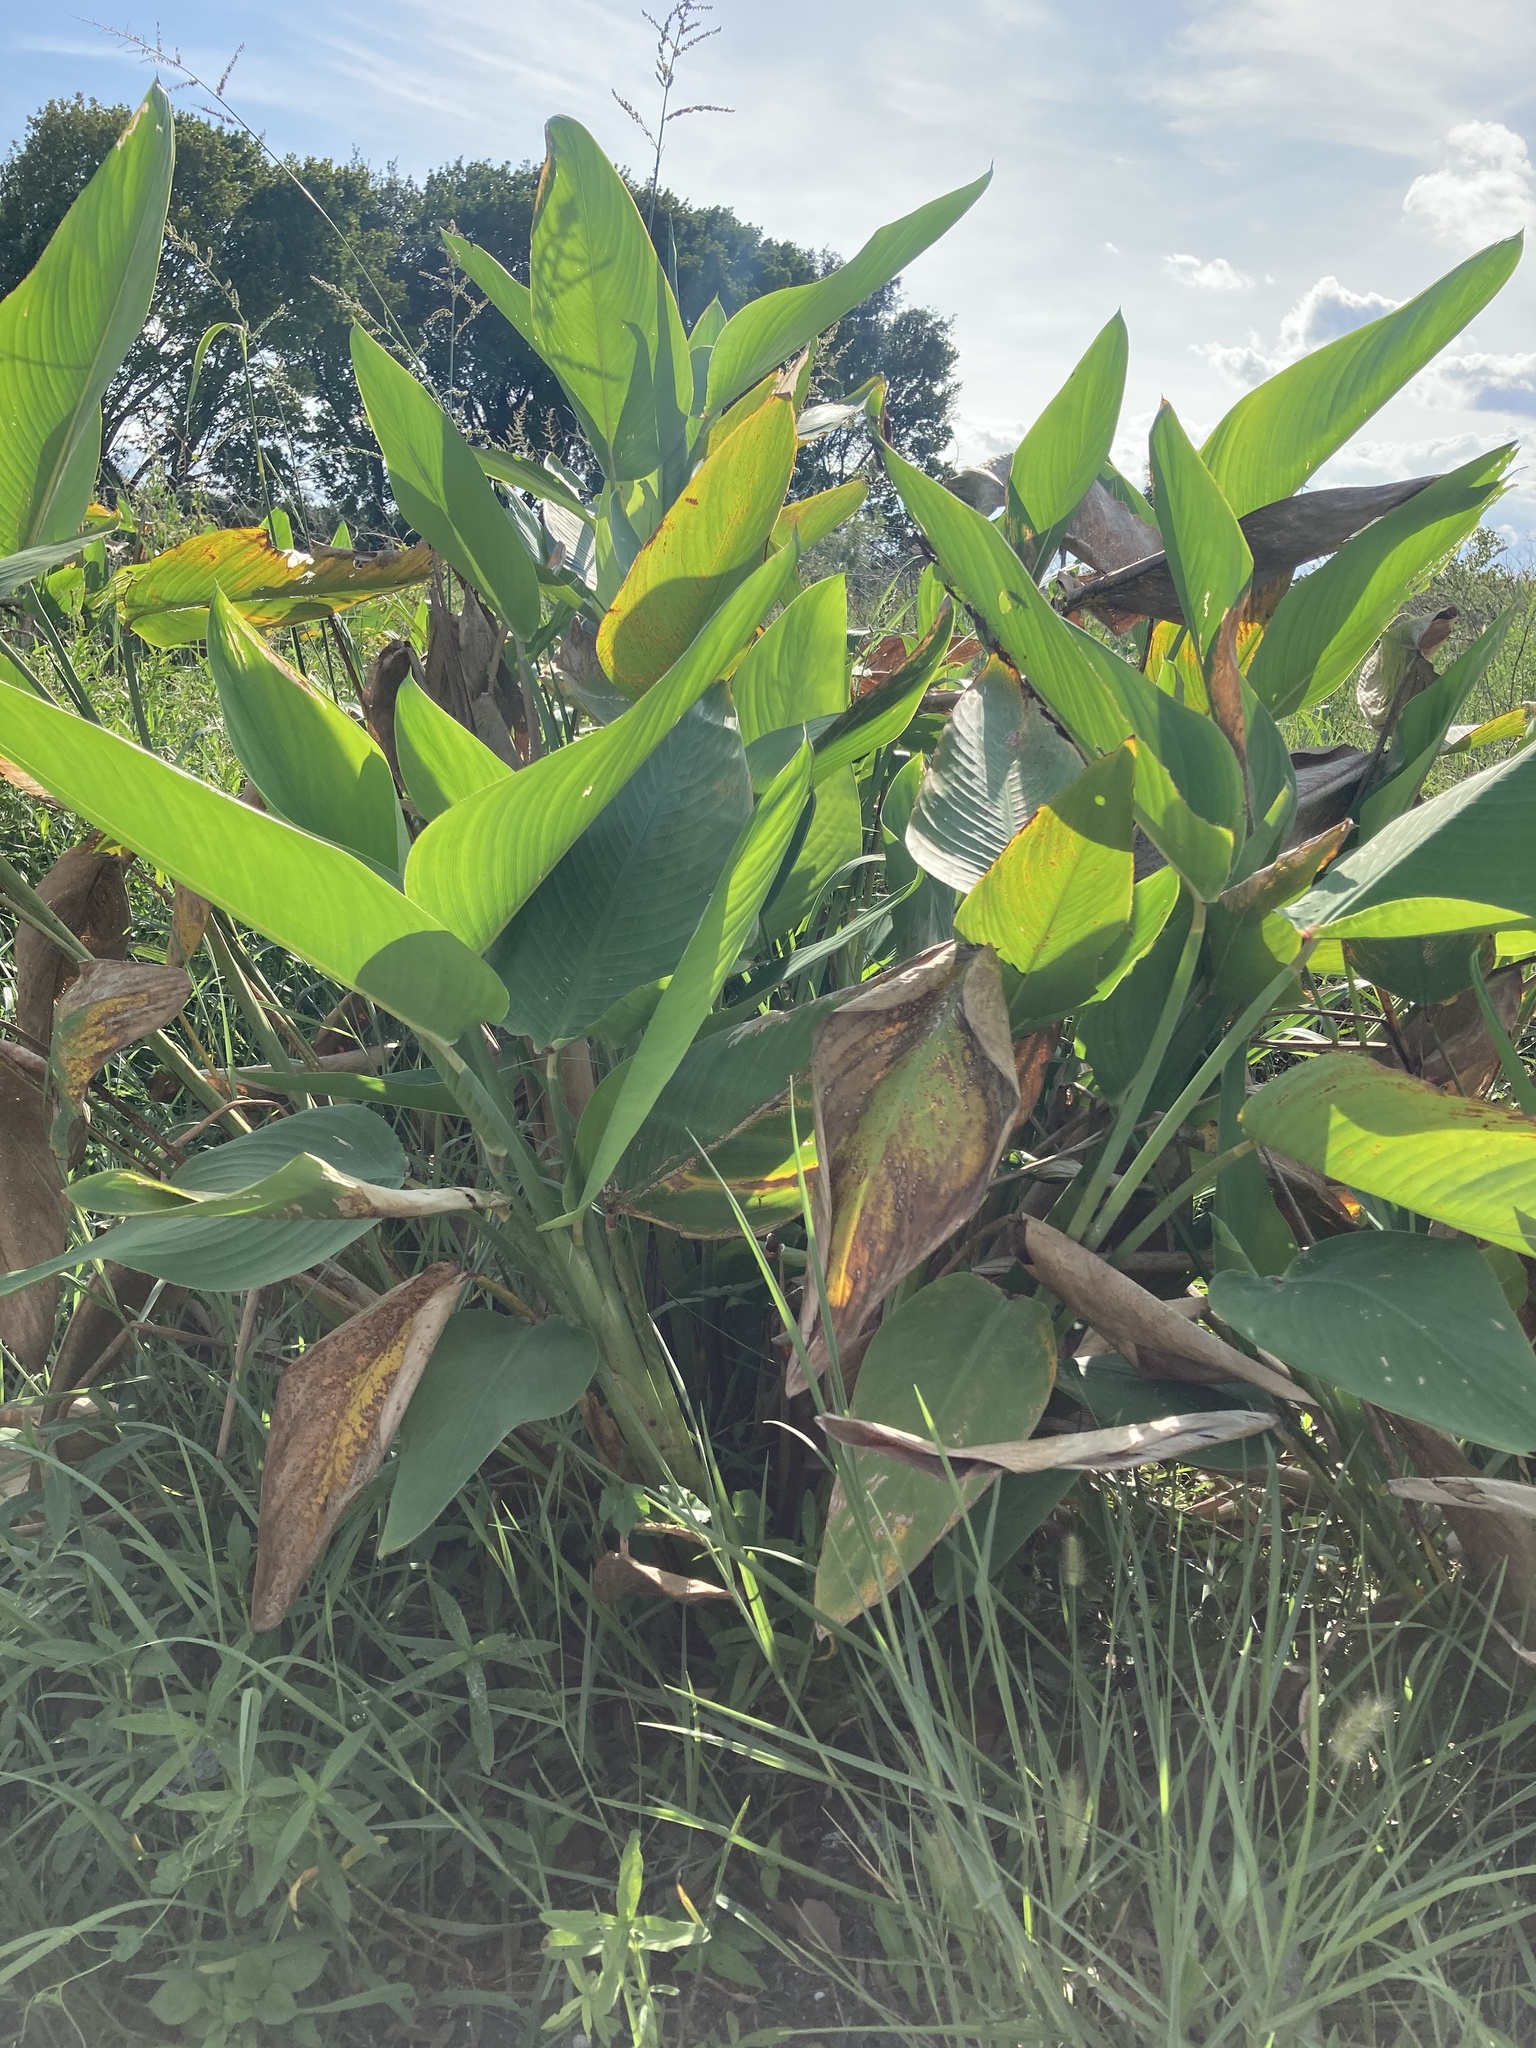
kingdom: Plantae
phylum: Tracheophyta
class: Liliopsida
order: Zingiberales
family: Marantaceae
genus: Thalia
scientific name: Thalia geniculata
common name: Arrowroot
